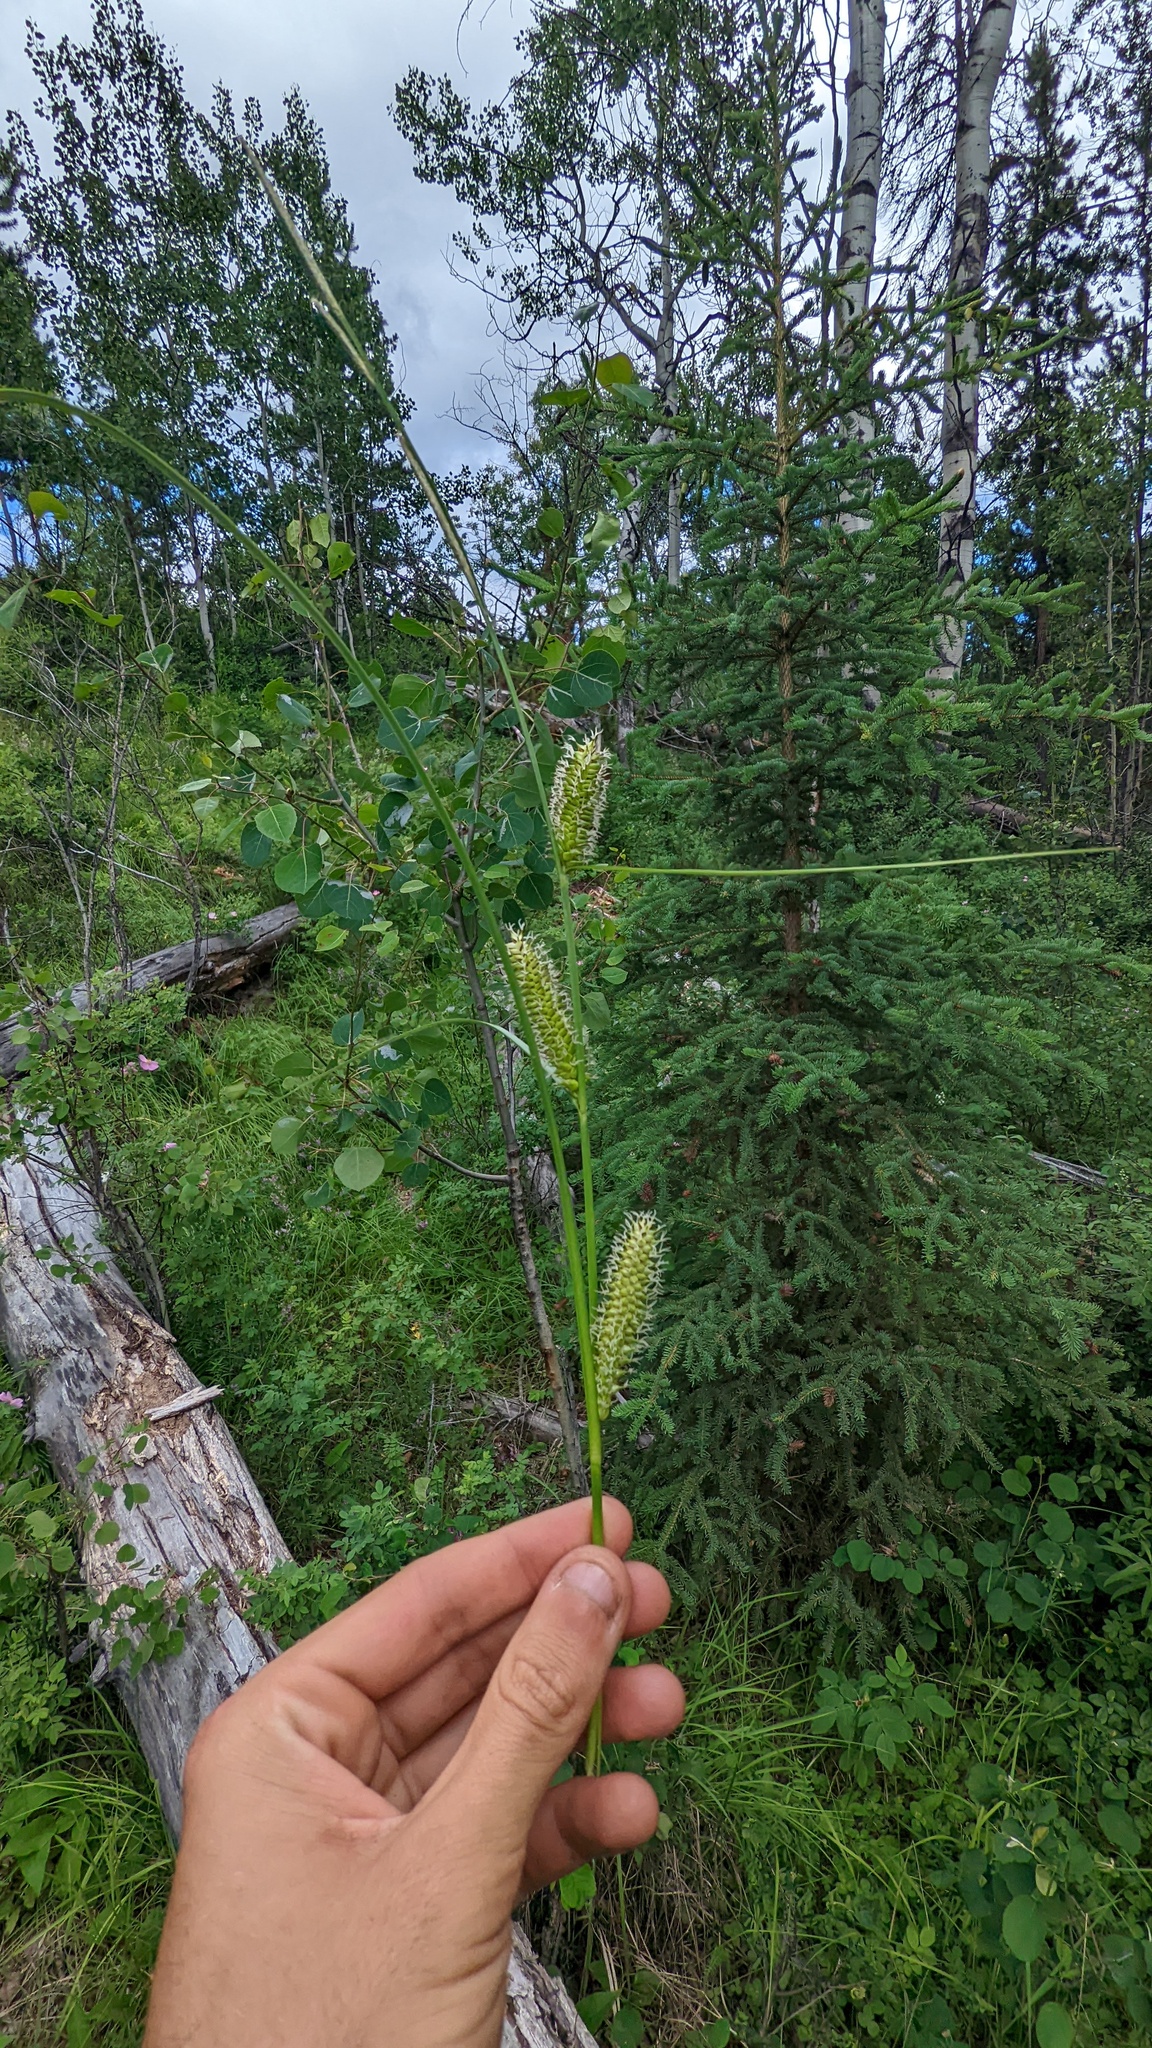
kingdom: Plantae
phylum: Tracheophyta
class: Liliopsida
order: Poales
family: Cyperaceae
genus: Carex
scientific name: Carex utriculata
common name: Beaked sedge
